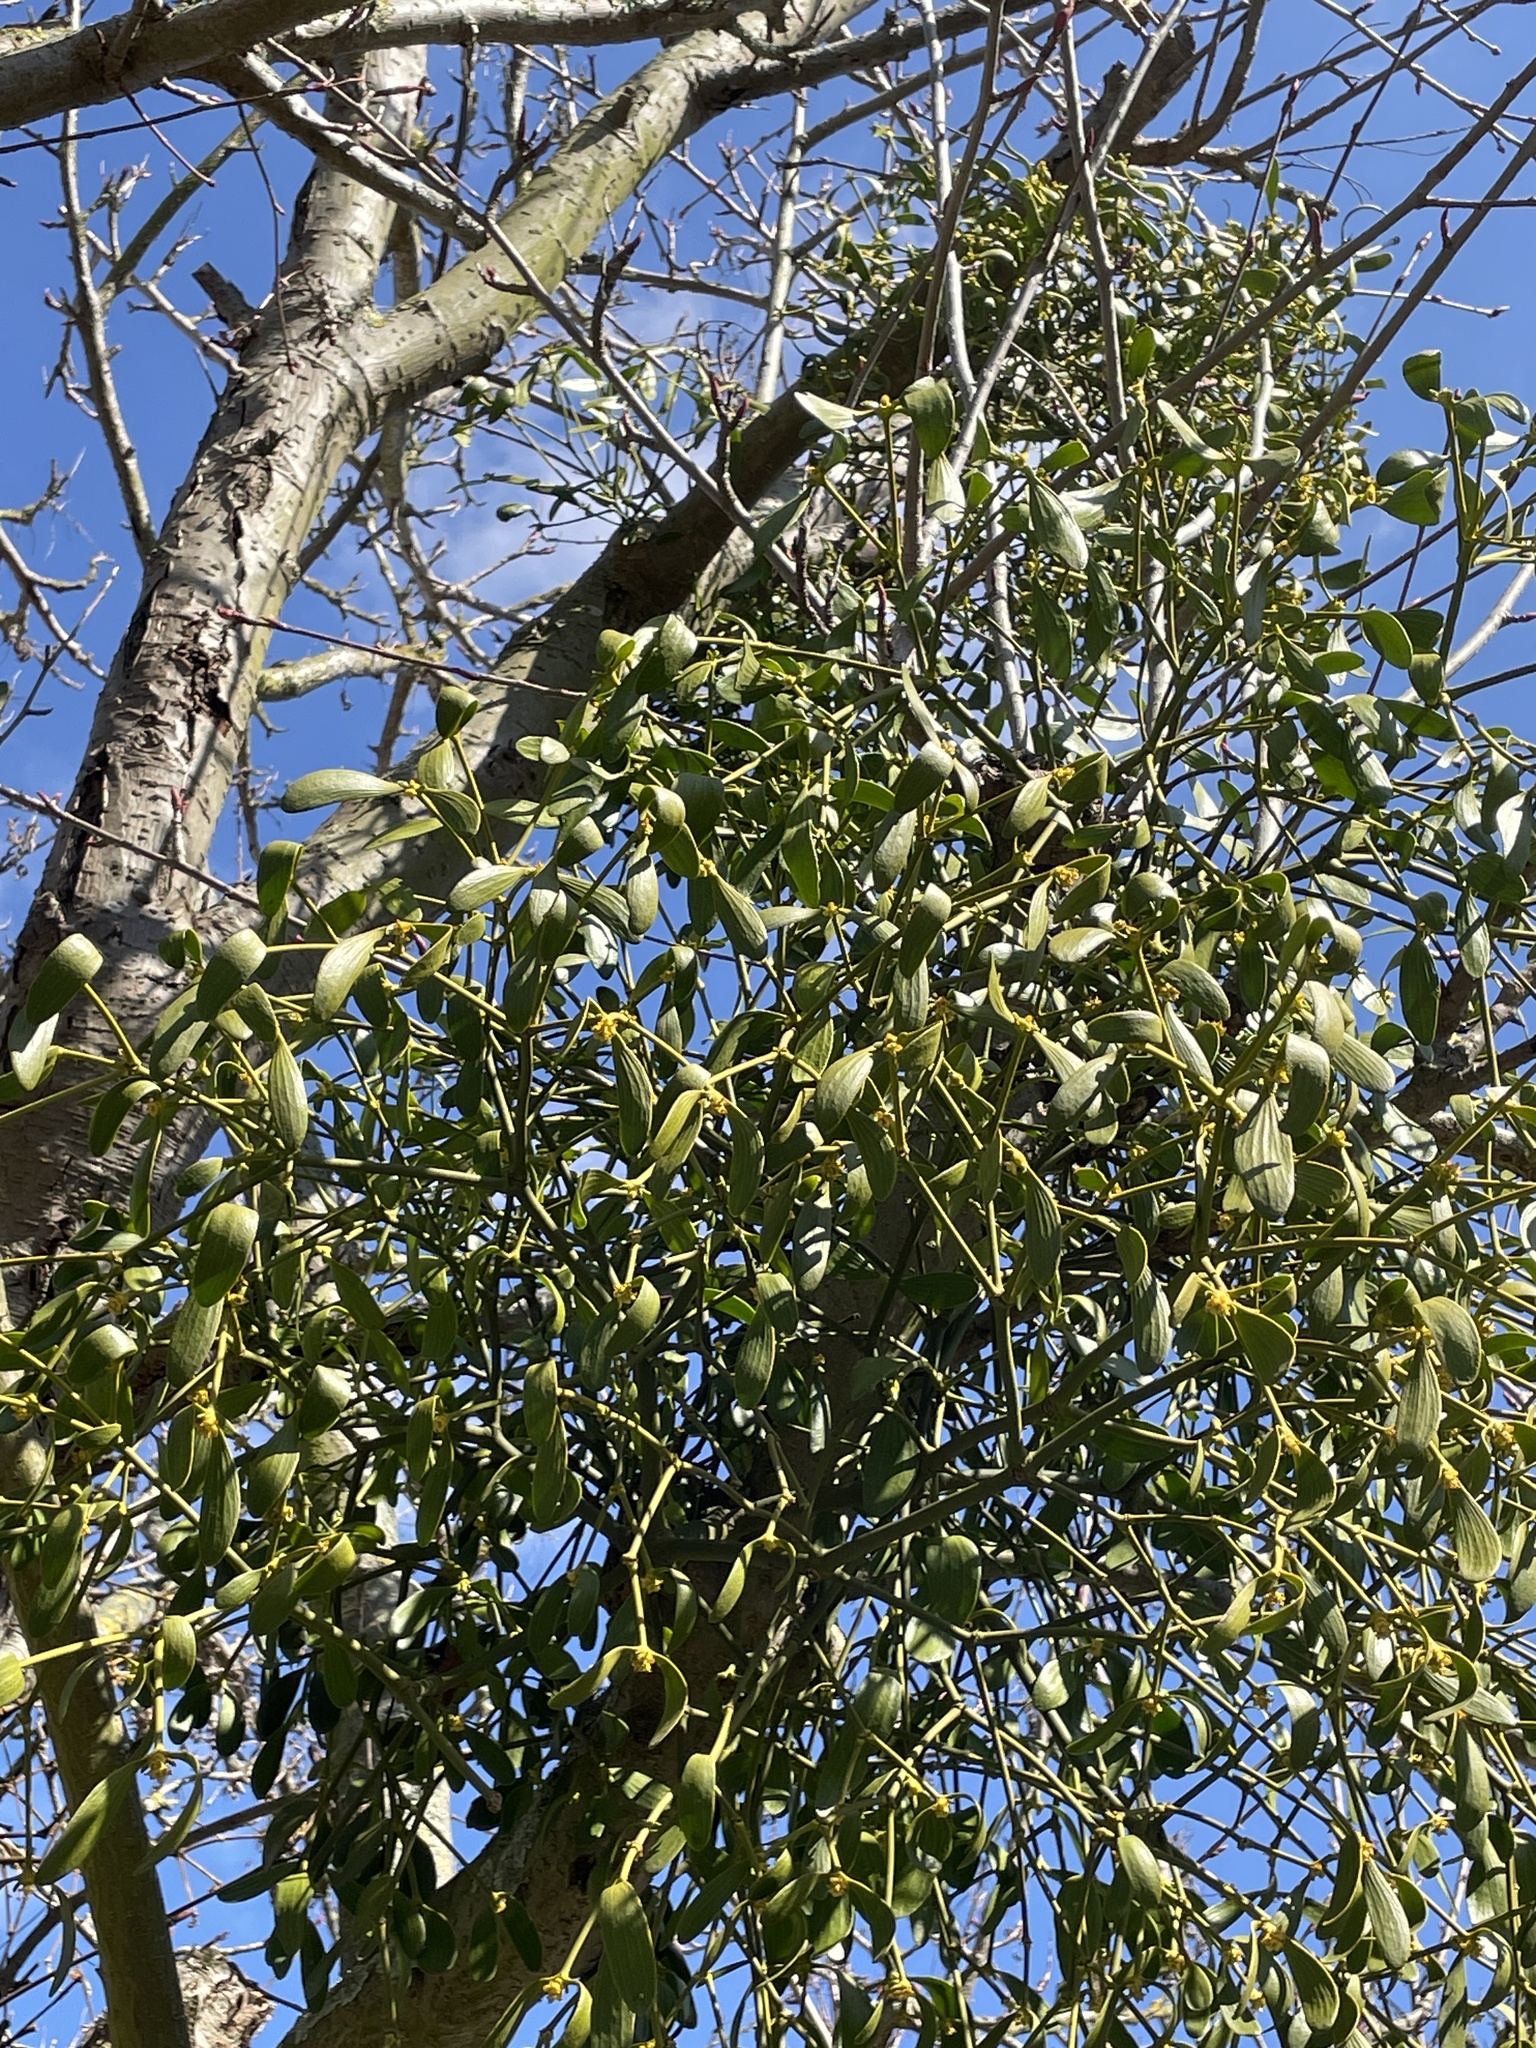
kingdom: Plantae
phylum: Tracheophyta
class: Magnoliopsida
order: Santalales
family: Viscaceae
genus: Viscum
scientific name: Viscum album
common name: Mistletoe
